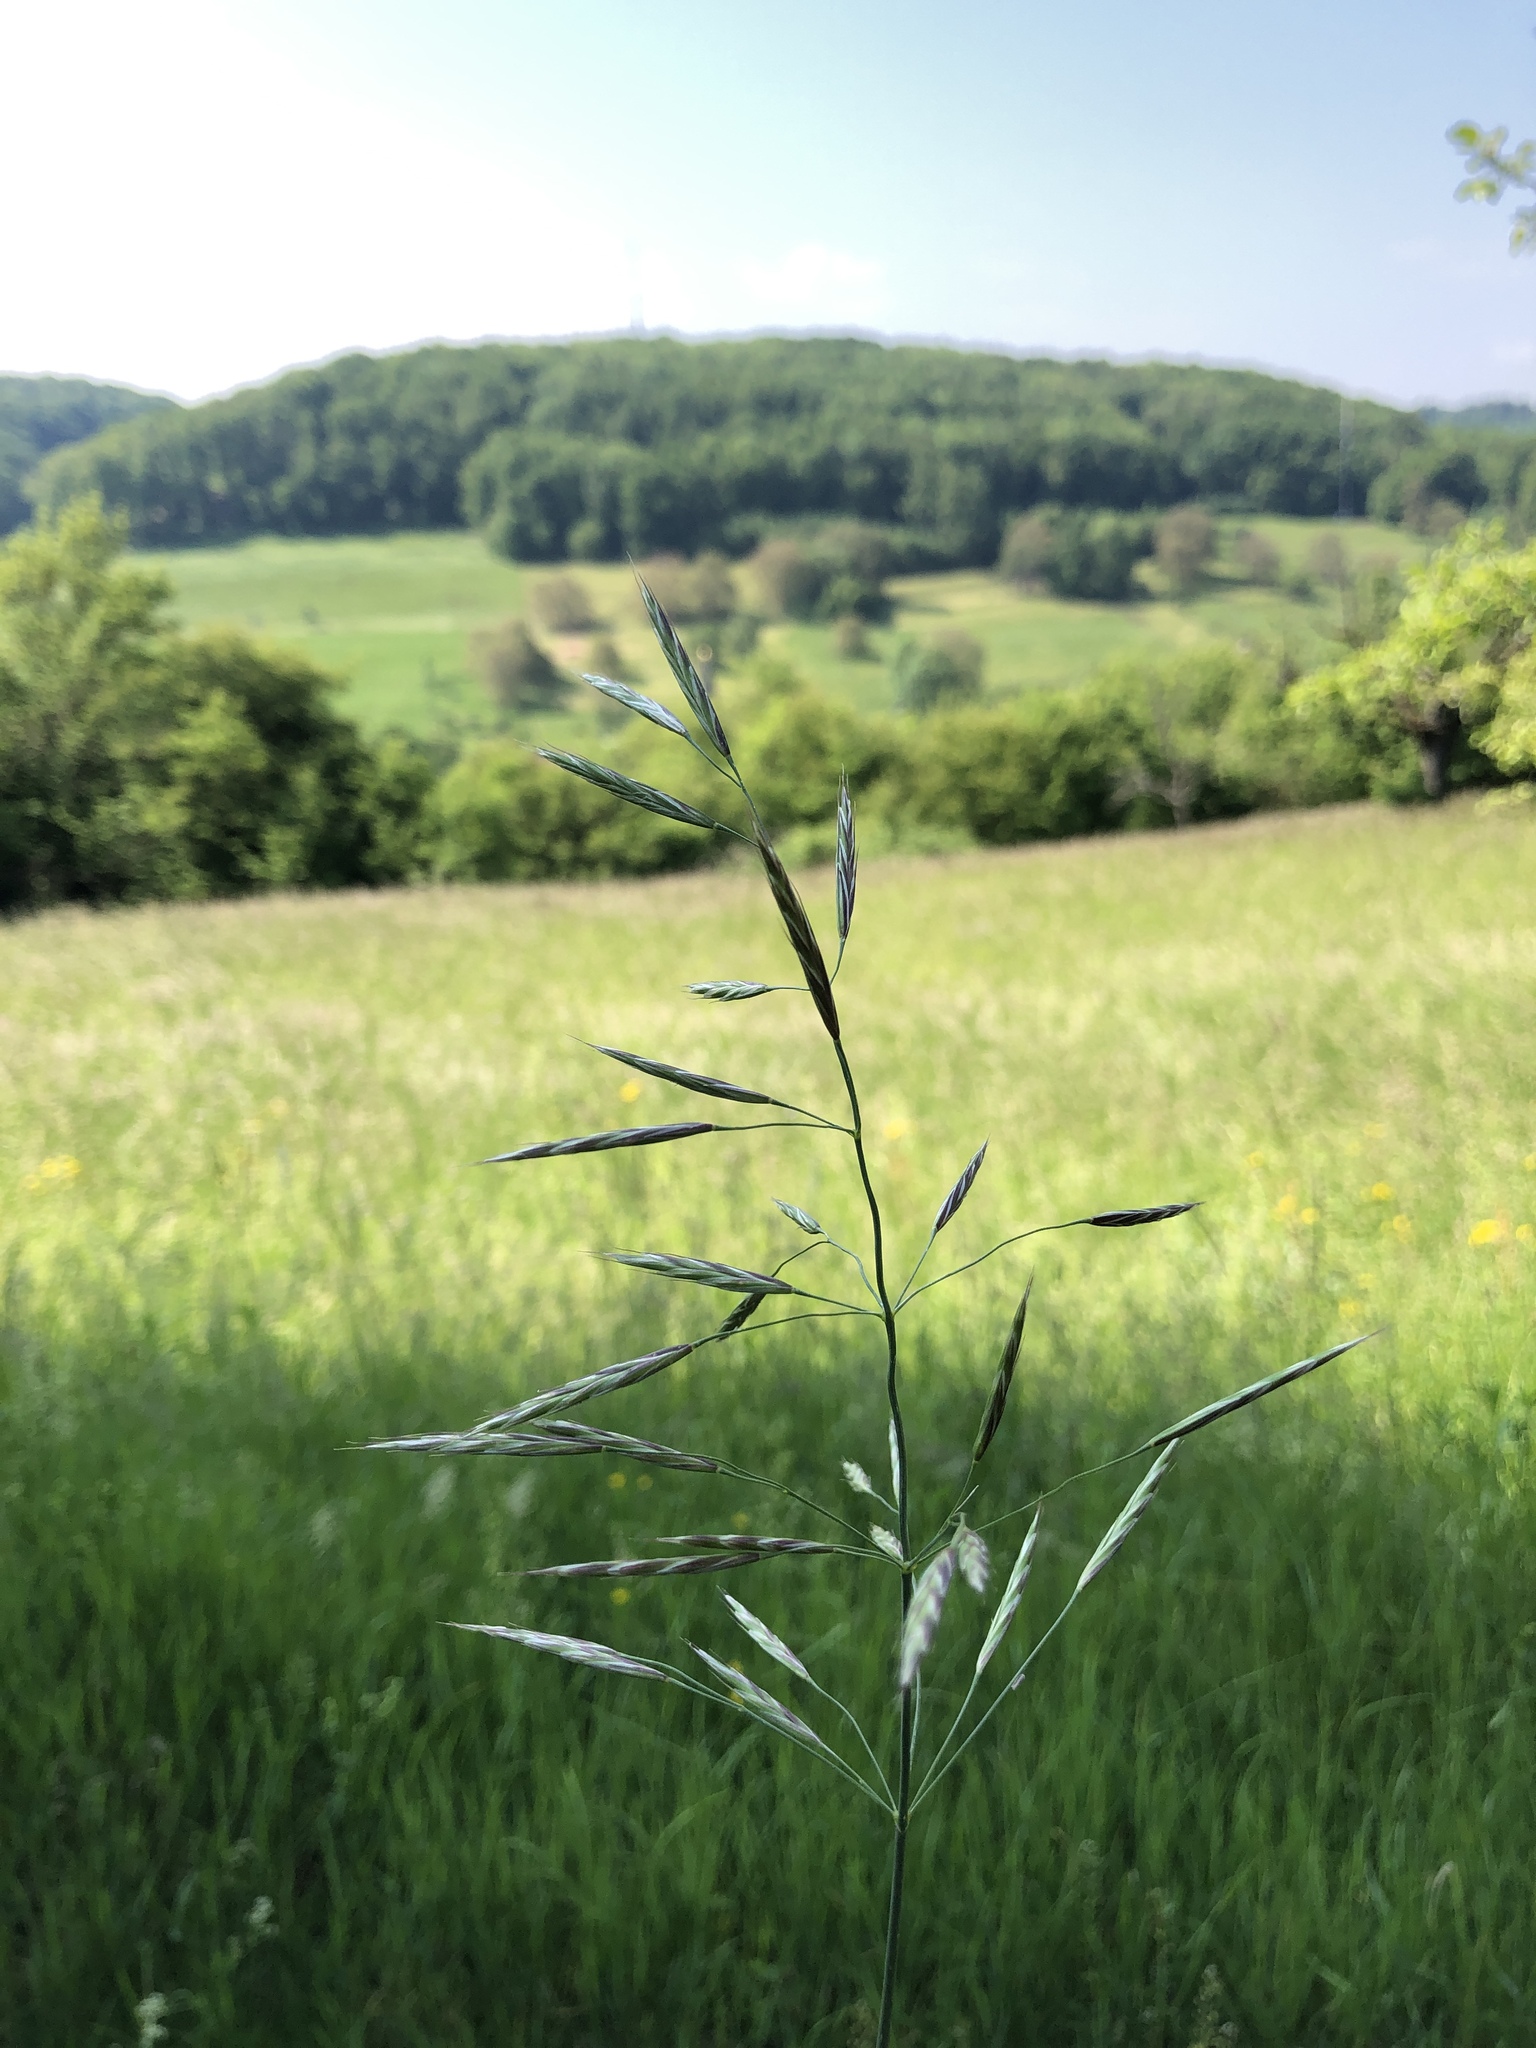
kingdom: Plantae
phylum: Tracheophyta
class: Liliopsida
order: Poales
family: Poaceae
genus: Bromus
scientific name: Bromus inermis
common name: Smooth brome
